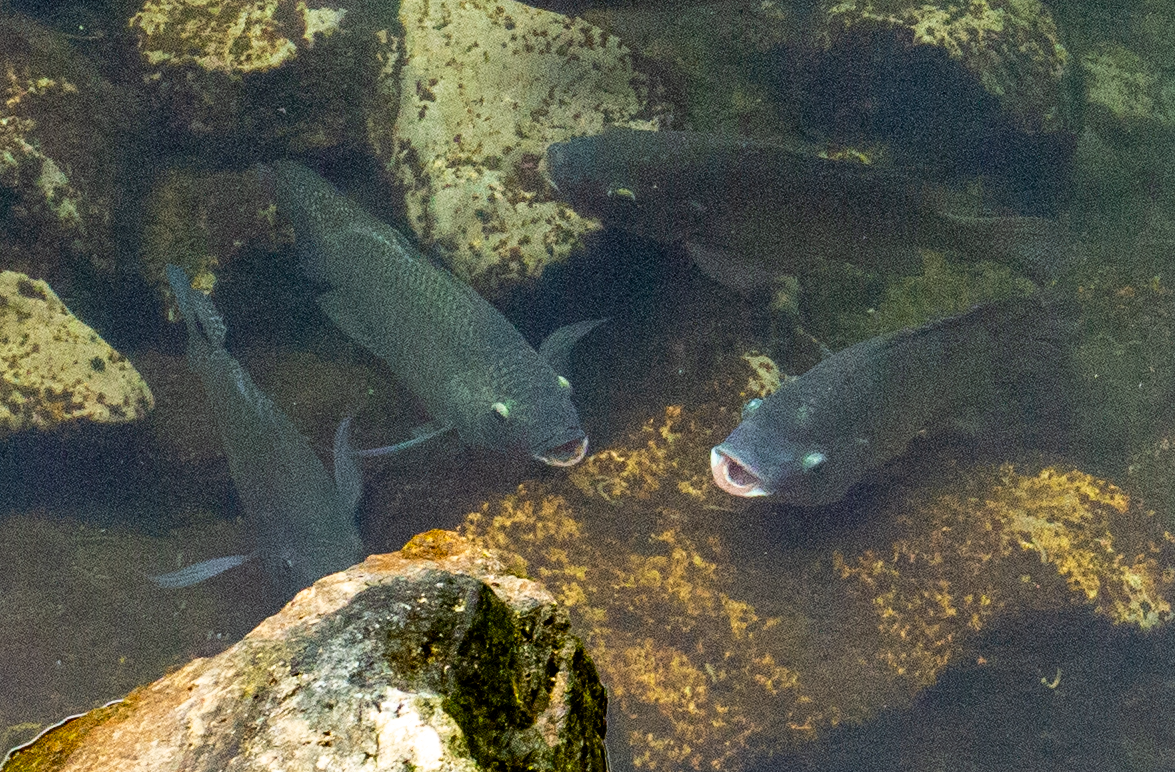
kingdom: Animalia
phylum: Chordata
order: Perciformes
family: Cichlidae
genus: Oreochromis
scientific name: Oreochromis aureus
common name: Blue tilapia
